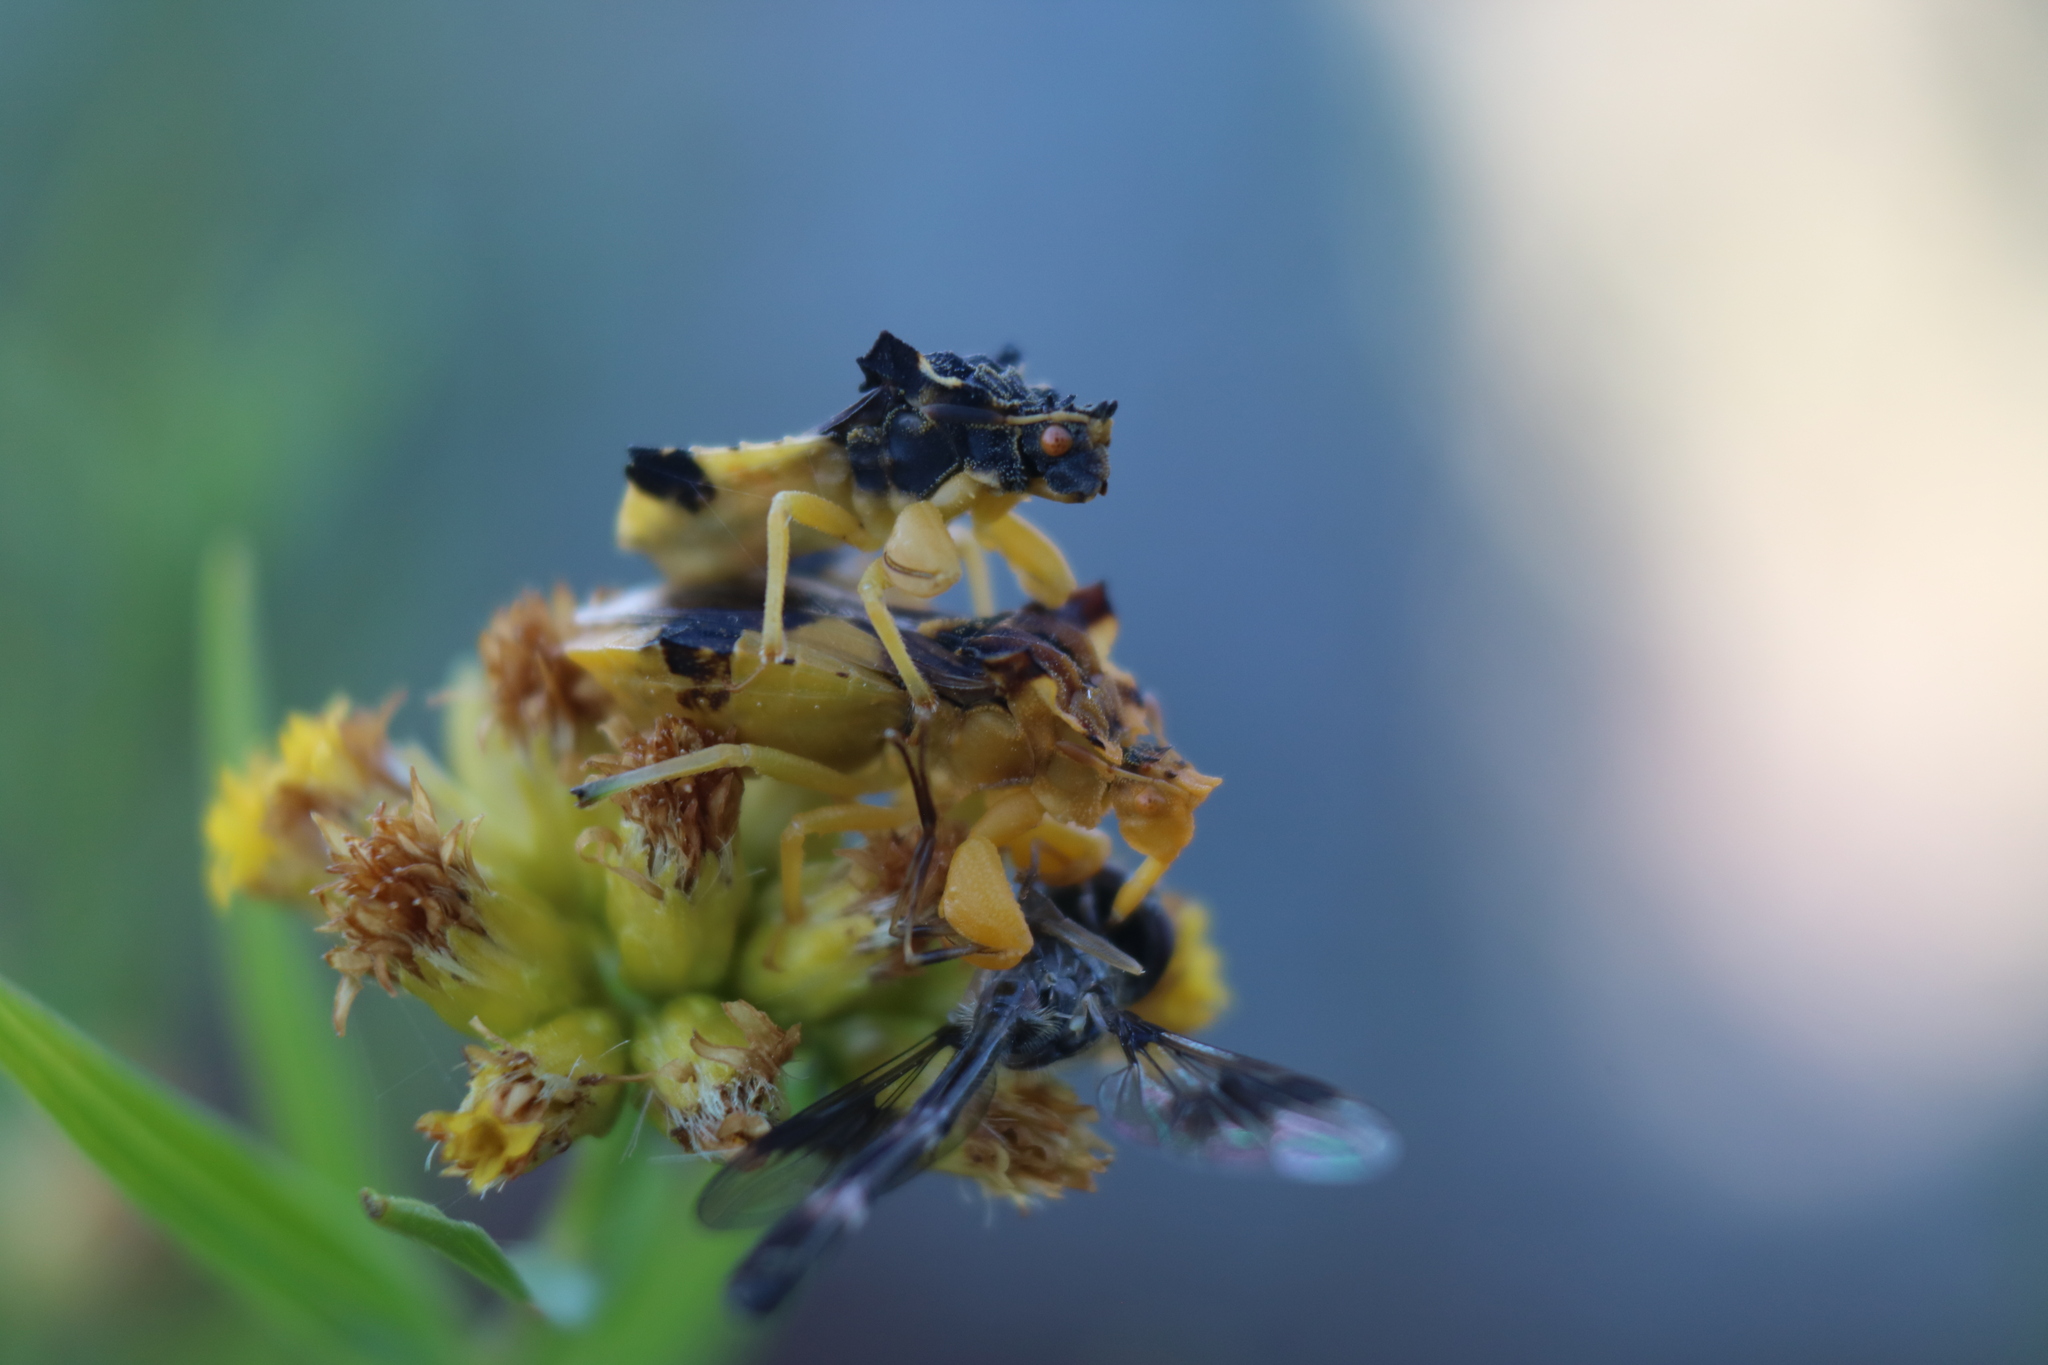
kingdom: Animalia
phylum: Arthropoda
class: Insecta
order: Diptera
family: Syrphidae
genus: Hypocritanus
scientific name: Hypocritanus fascipennis
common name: Eastern band-winged hover fly
